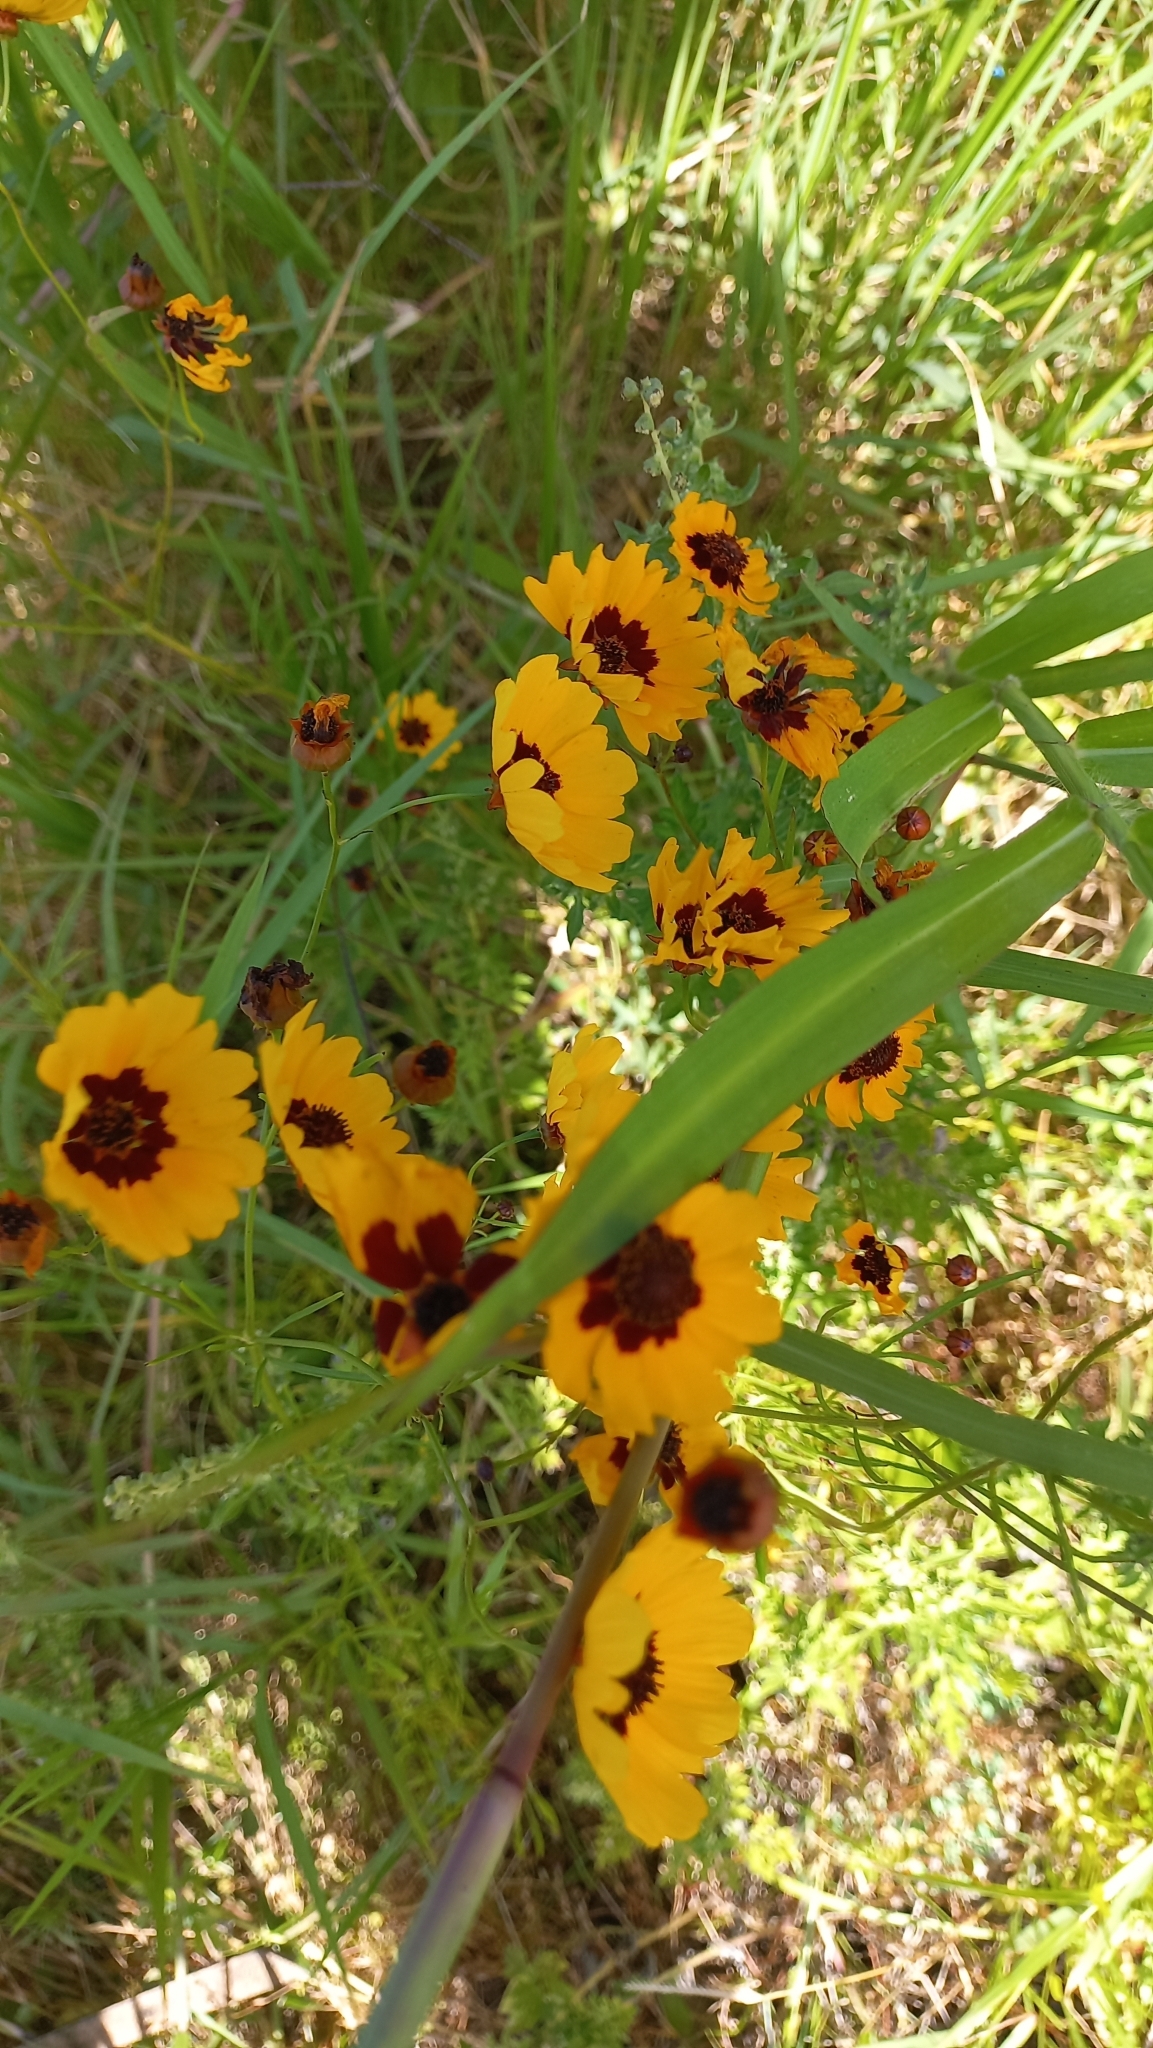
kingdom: Plantae
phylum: Tracheophyta
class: Magnoliopsida
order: Asterales
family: Asteraceae
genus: Coreopsis
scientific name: Coreopsis tinctoria
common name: Garden tickseed
